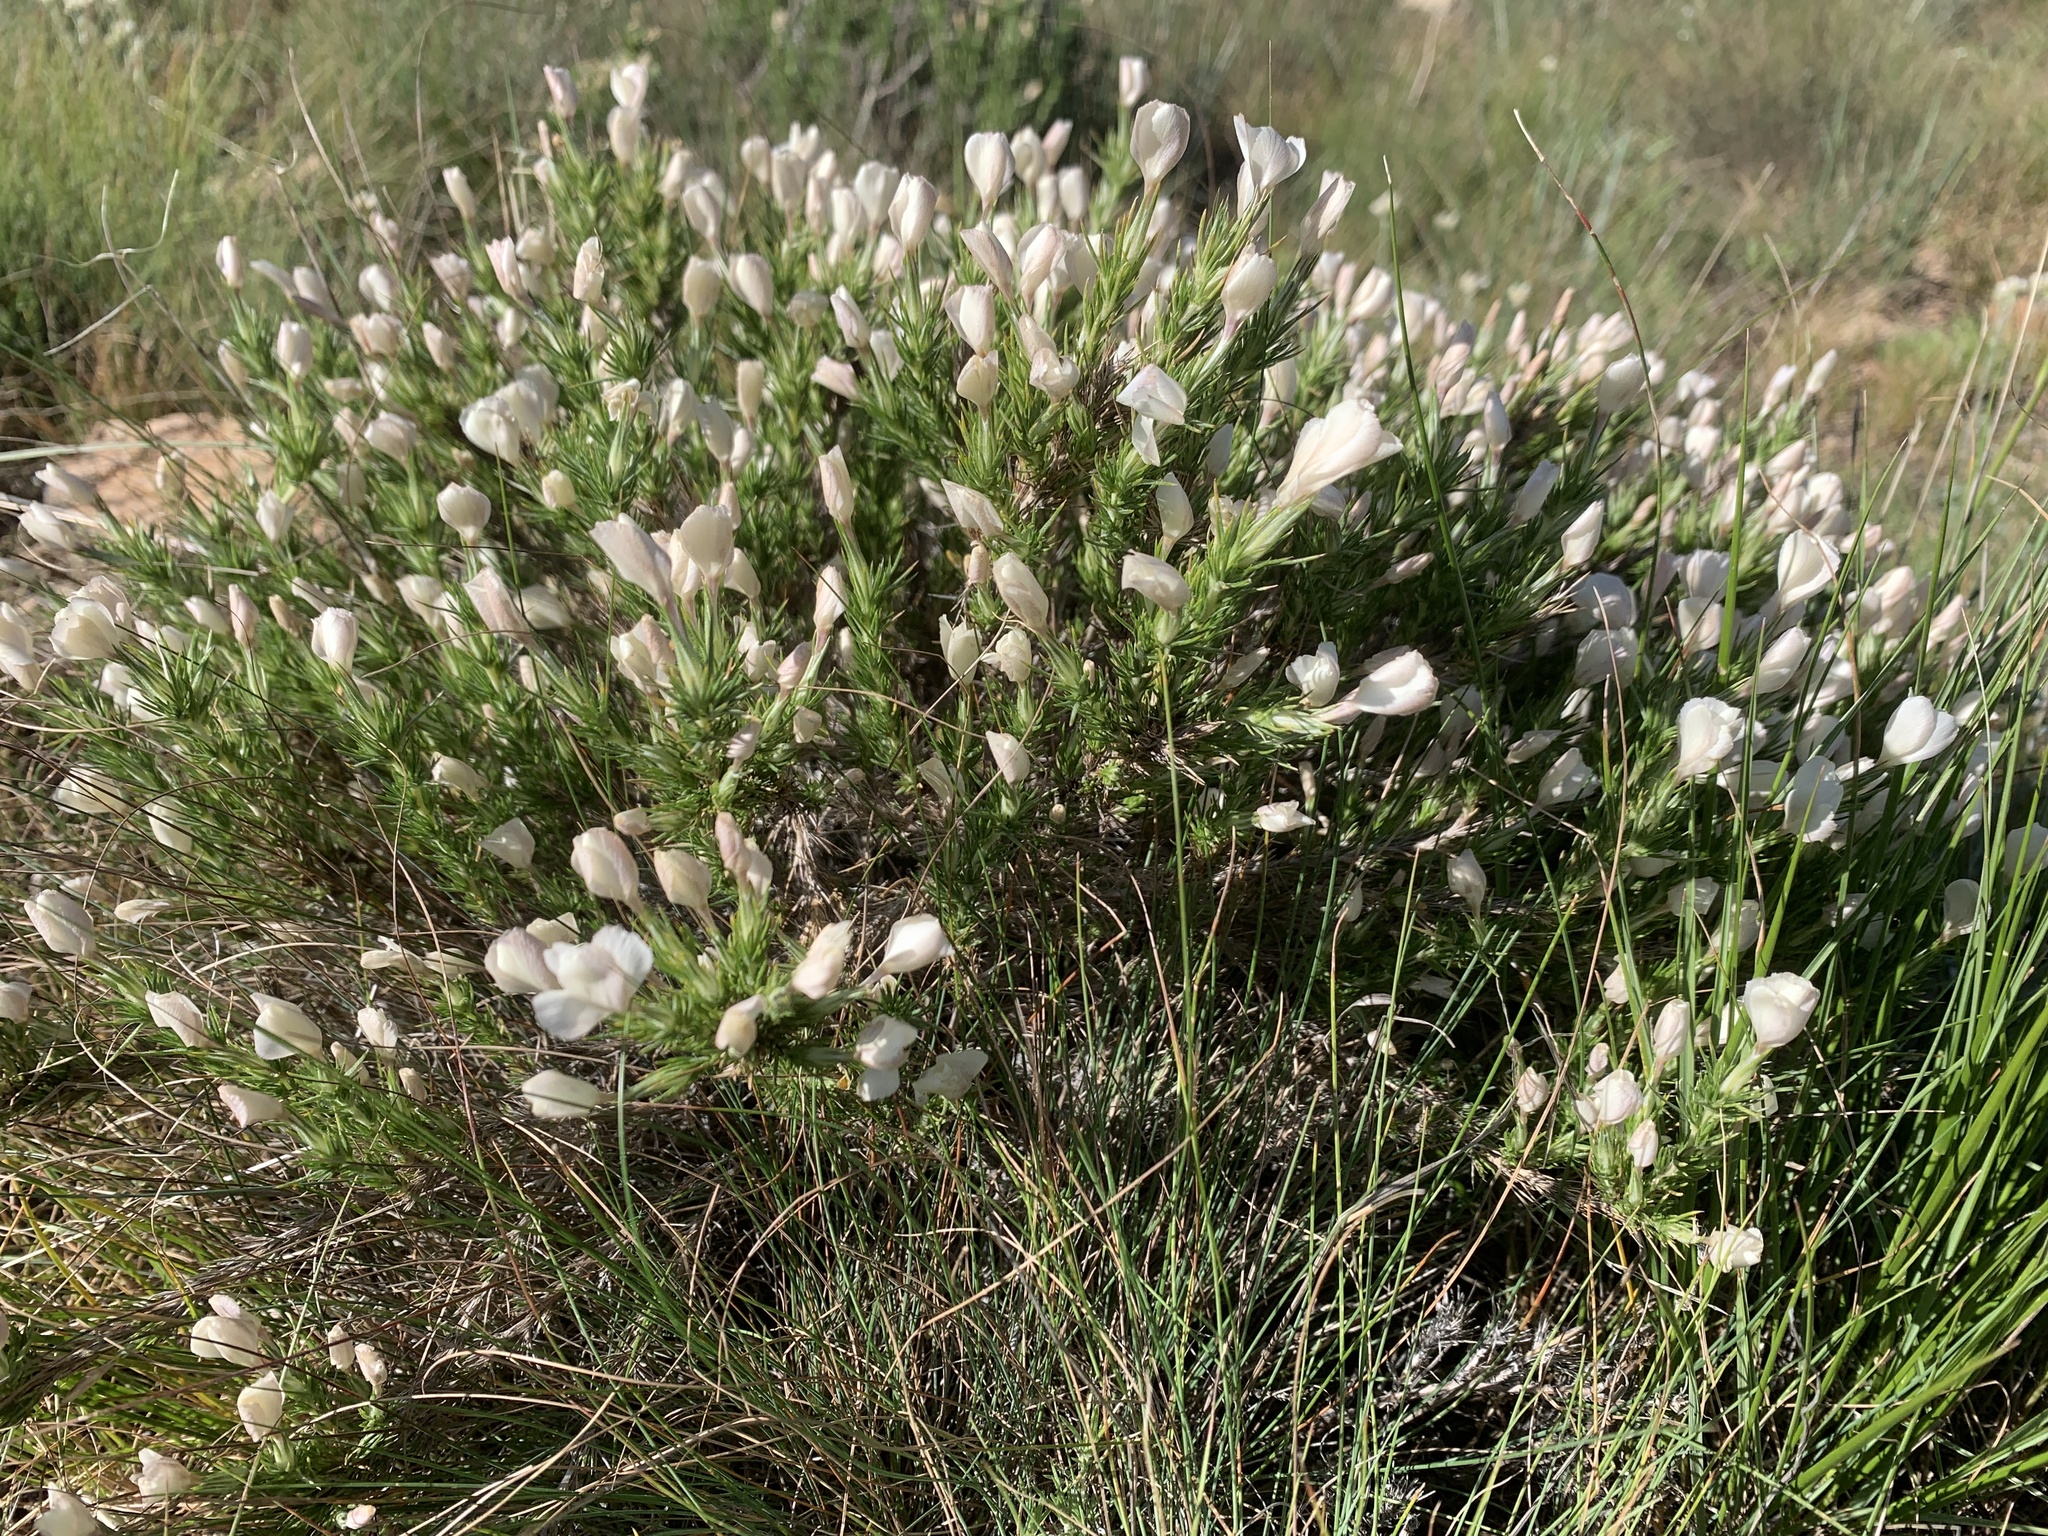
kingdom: Plantae
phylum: Tracheophyta
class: Magnoliopsida
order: Ericales
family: Polemoniaceae
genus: Linanthus
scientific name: Linanthus pungens
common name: Granite prickly phlox
